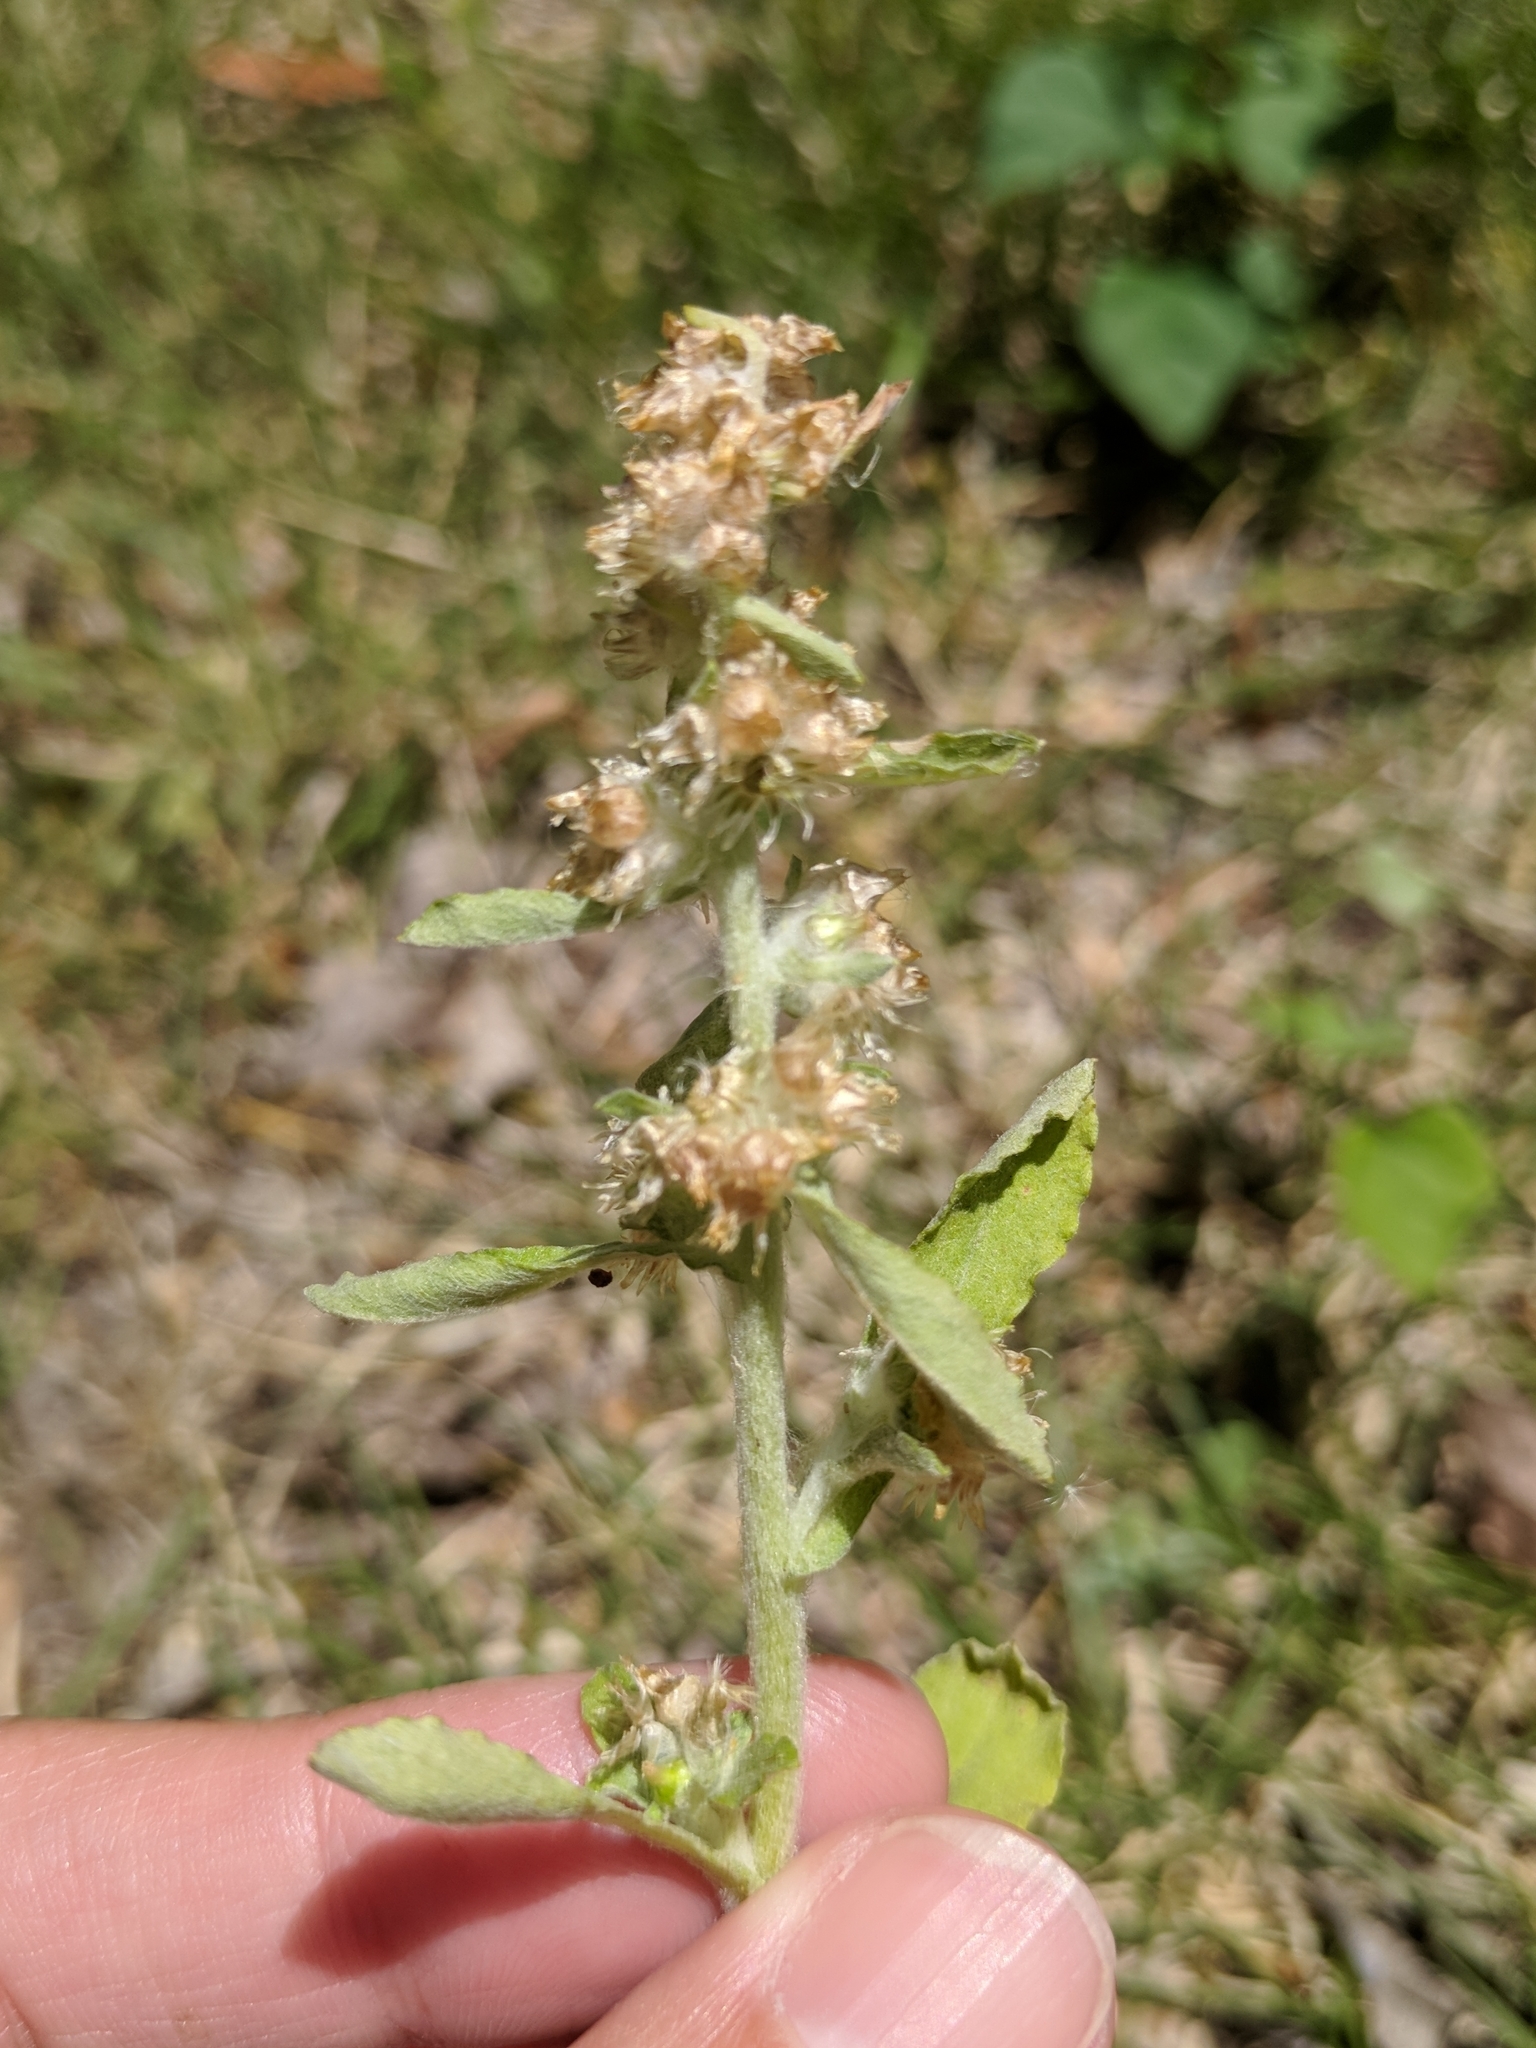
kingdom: Plantae
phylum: Tracheophyta
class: Magnoliopsida
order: Asterales
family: Asteraceae
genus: Gamochaeta
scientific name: Gamochaeta pensylvanica
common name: Pennsylvania everlasting
